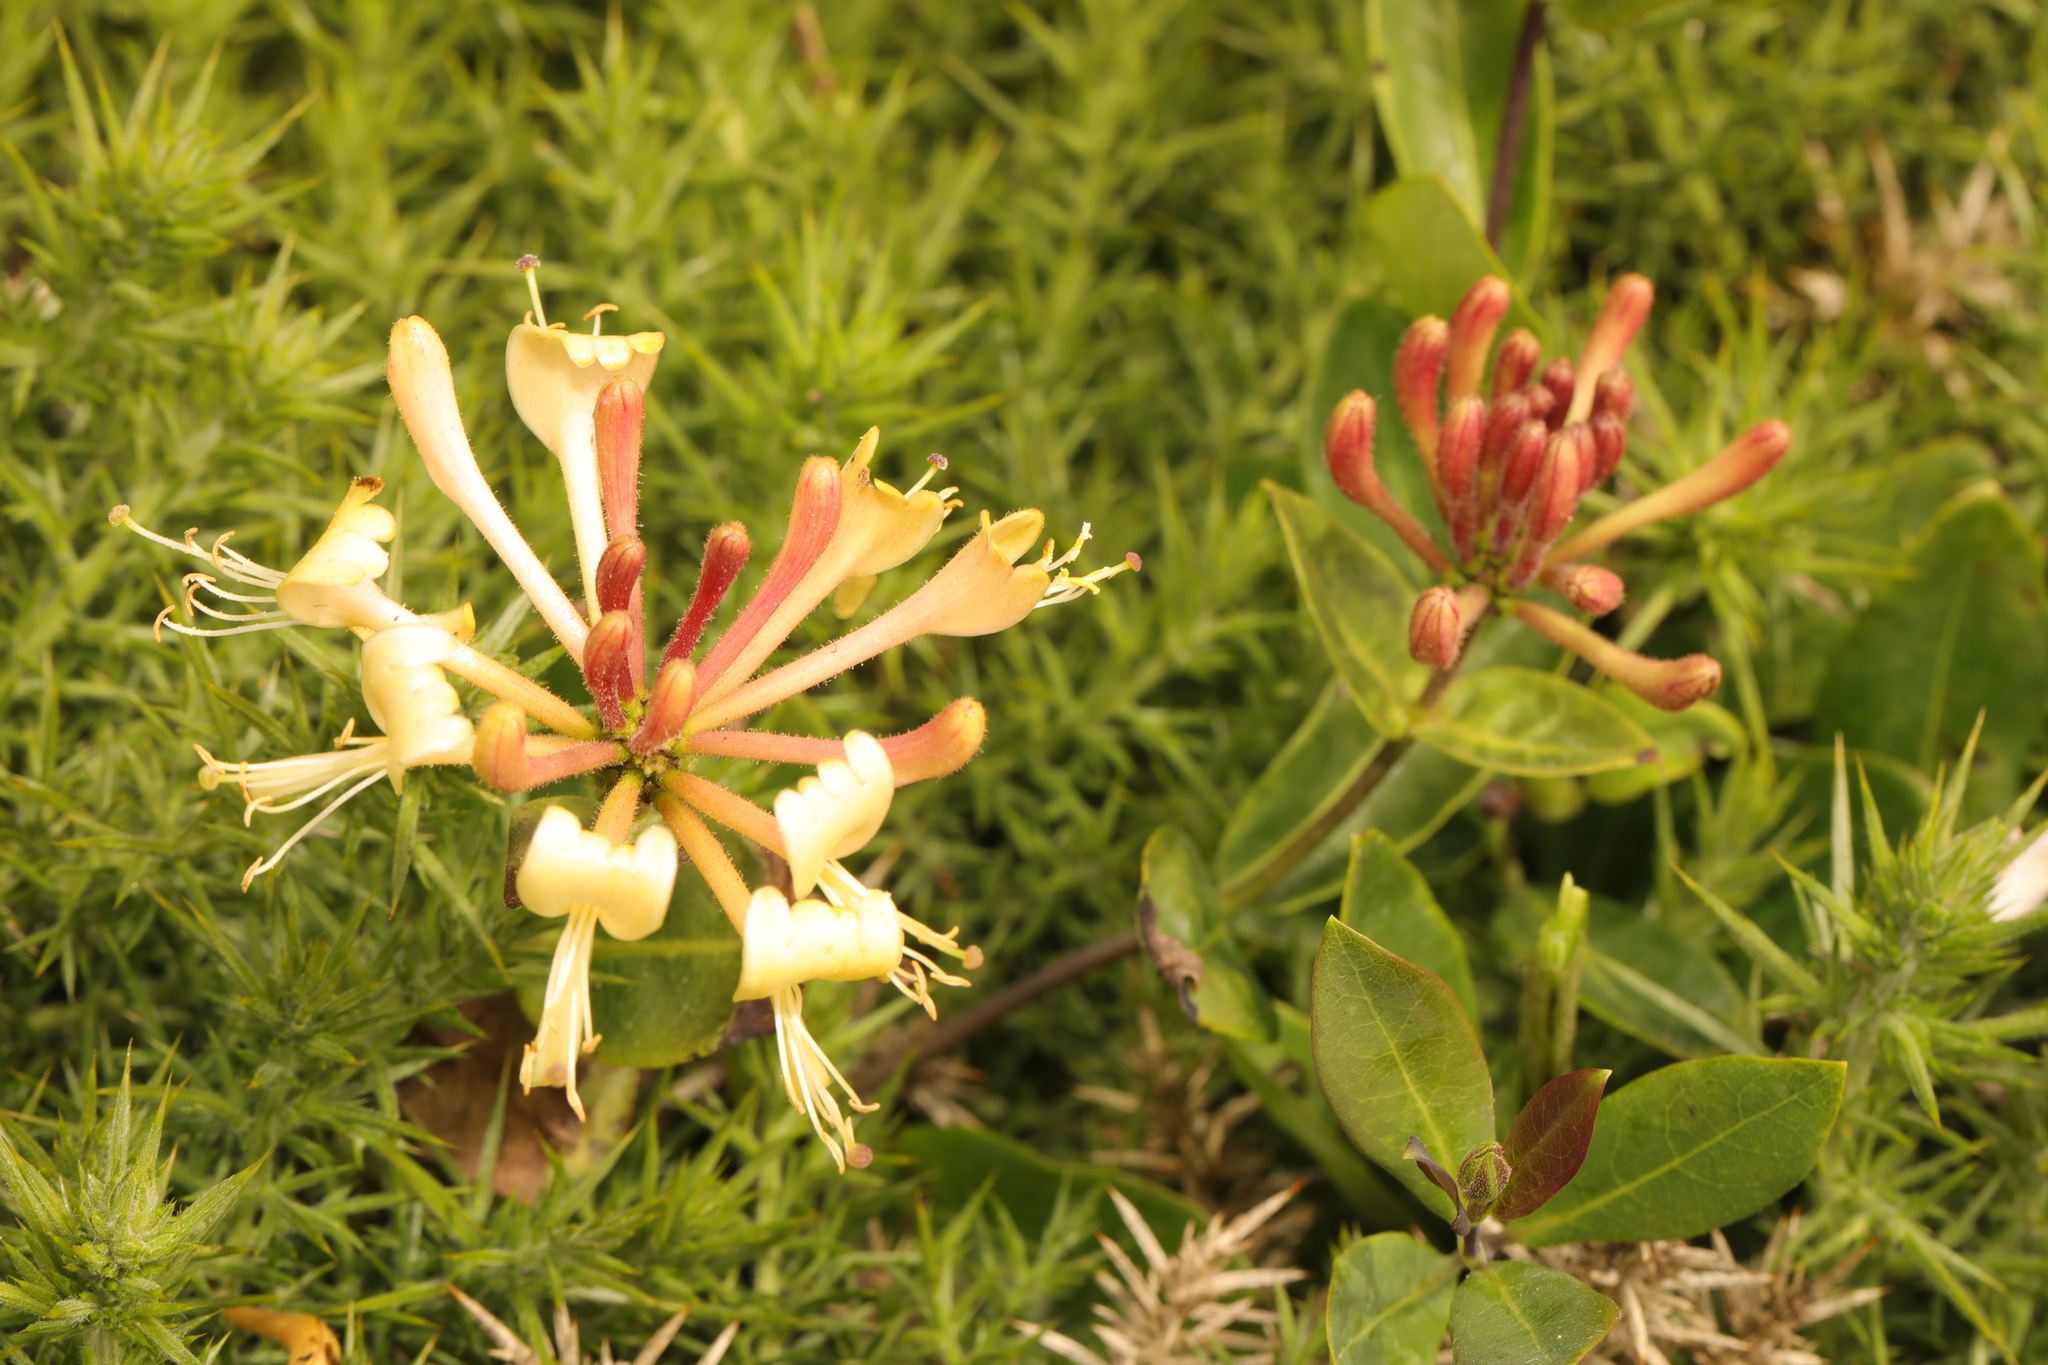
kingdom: Plantae
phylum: Tracheophyta
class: Magnoliopsida
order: Dipsacales
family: Caprifoliaceae
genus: Lonicera
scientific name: Lonicera periclymenum
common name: European honeysuckle
